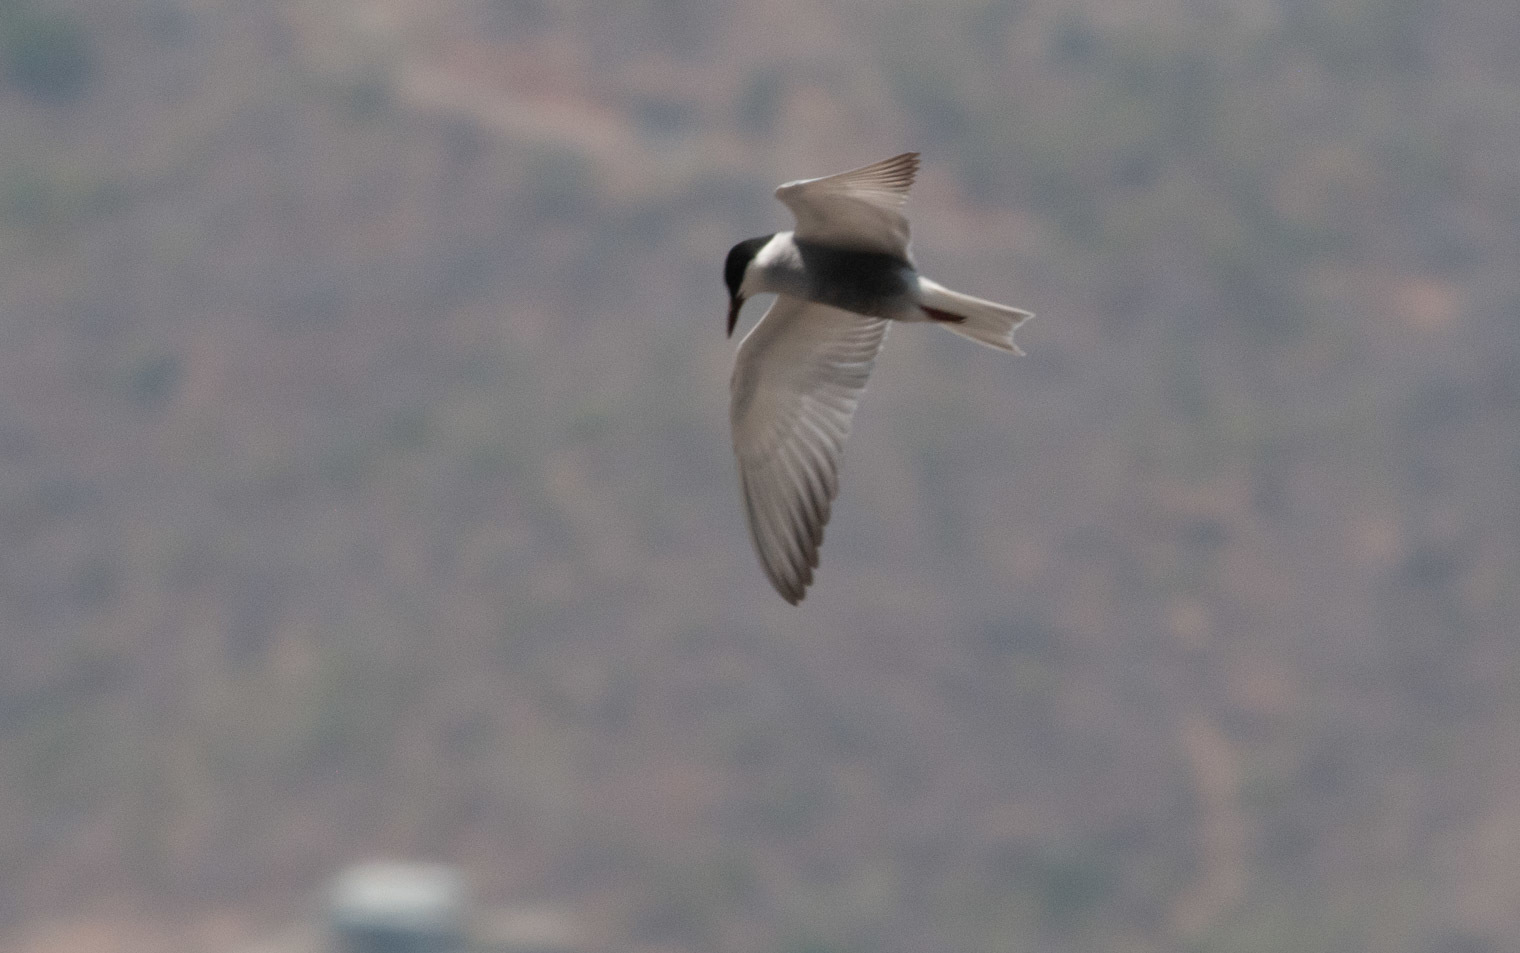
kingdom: Animalia
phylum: Chordata
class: Aves
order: Charadriiformes
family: Laridae
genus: Chlidonias
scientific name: Chlidonias hybrida
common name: Whiskered tern
